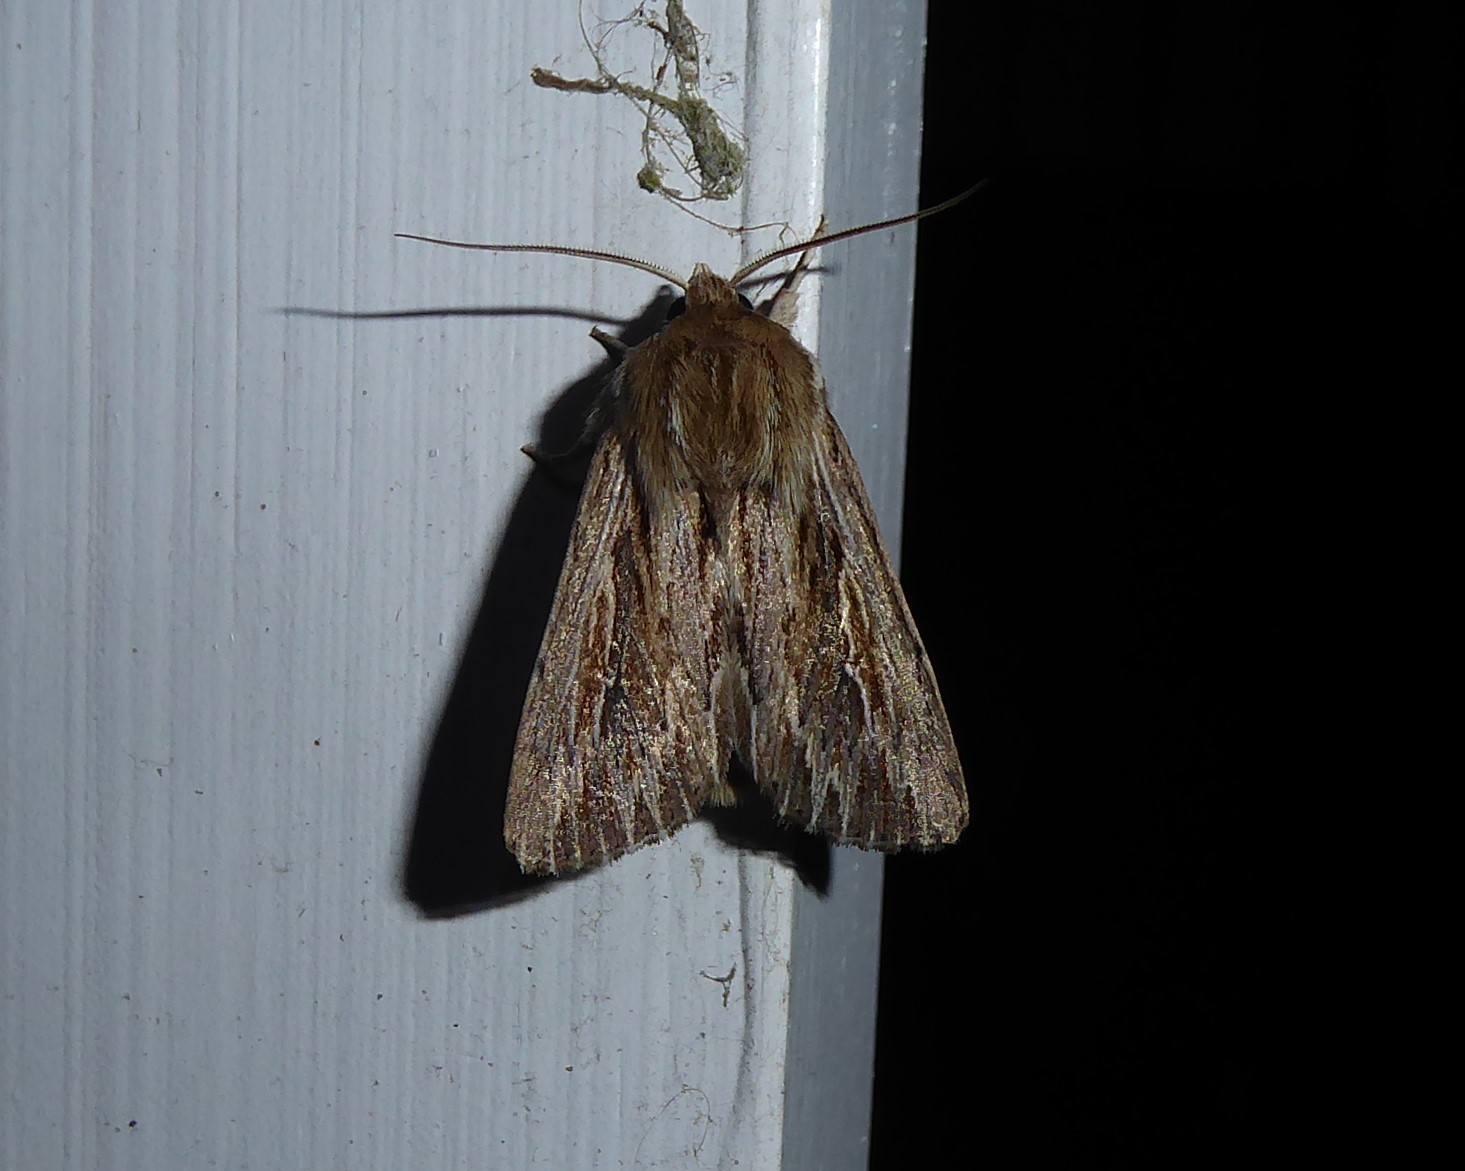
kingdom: Animalia
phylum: Arthropoda
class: Insecta
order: Lepidoptera
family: Noctuidae
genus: Persectania
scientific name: Persectania aversa
